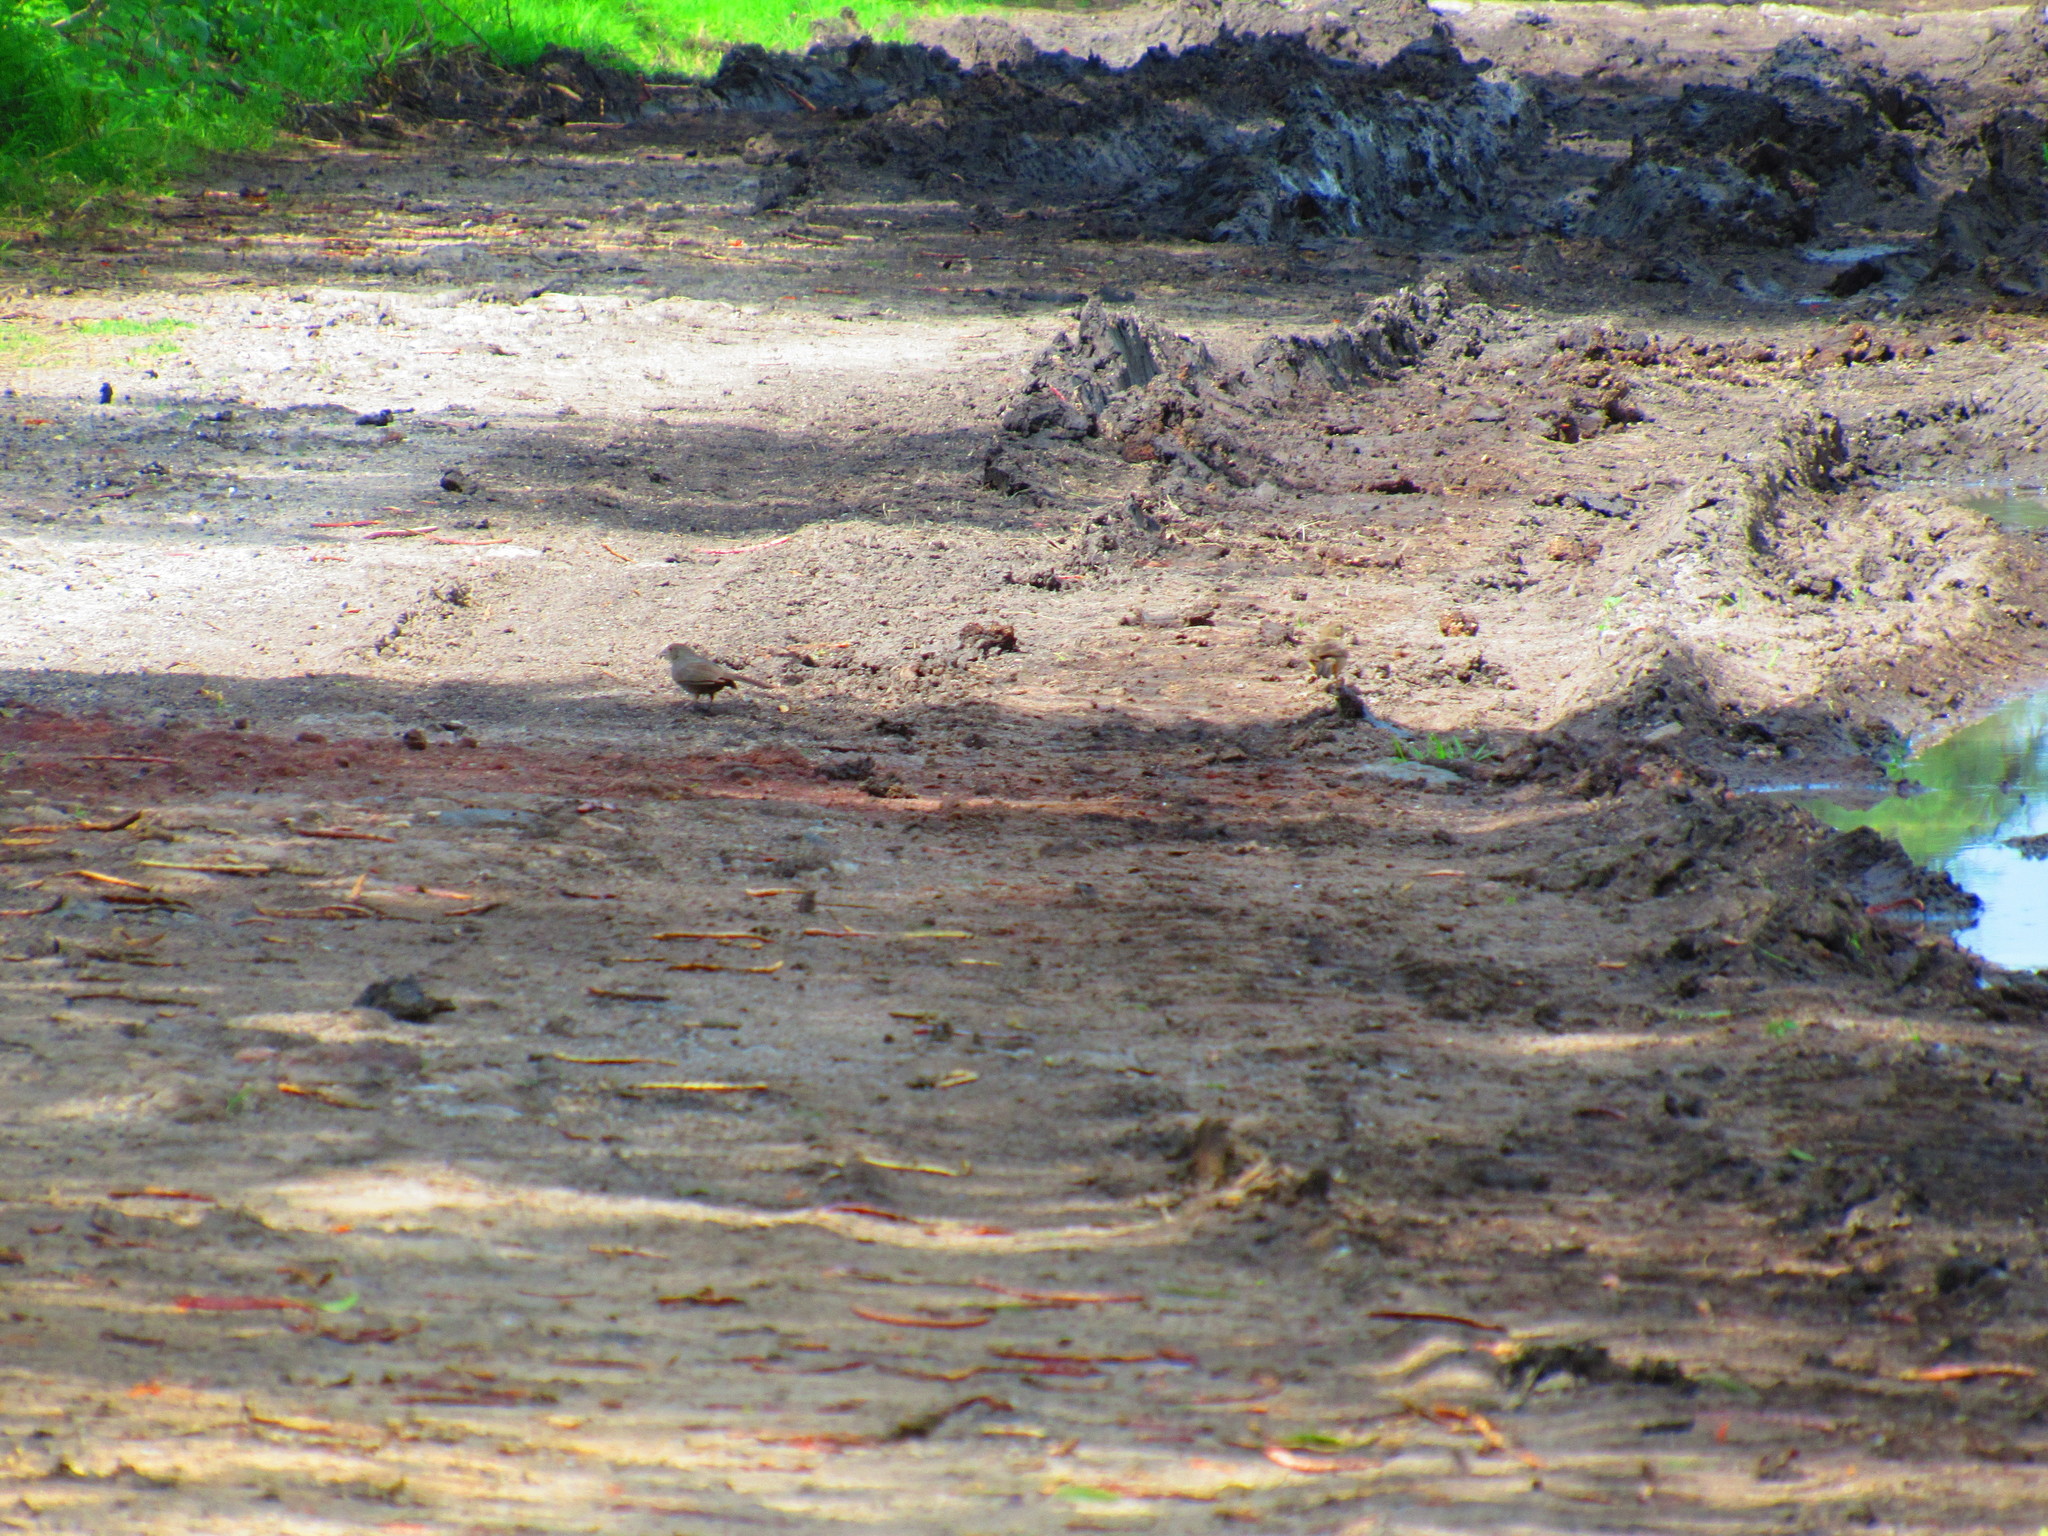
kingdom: Animalia
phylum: Chordata
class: Aves
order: Passeriformes
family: Passerellidae
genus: Melozone
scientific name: Melozone fusca
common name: Canyon towhee
